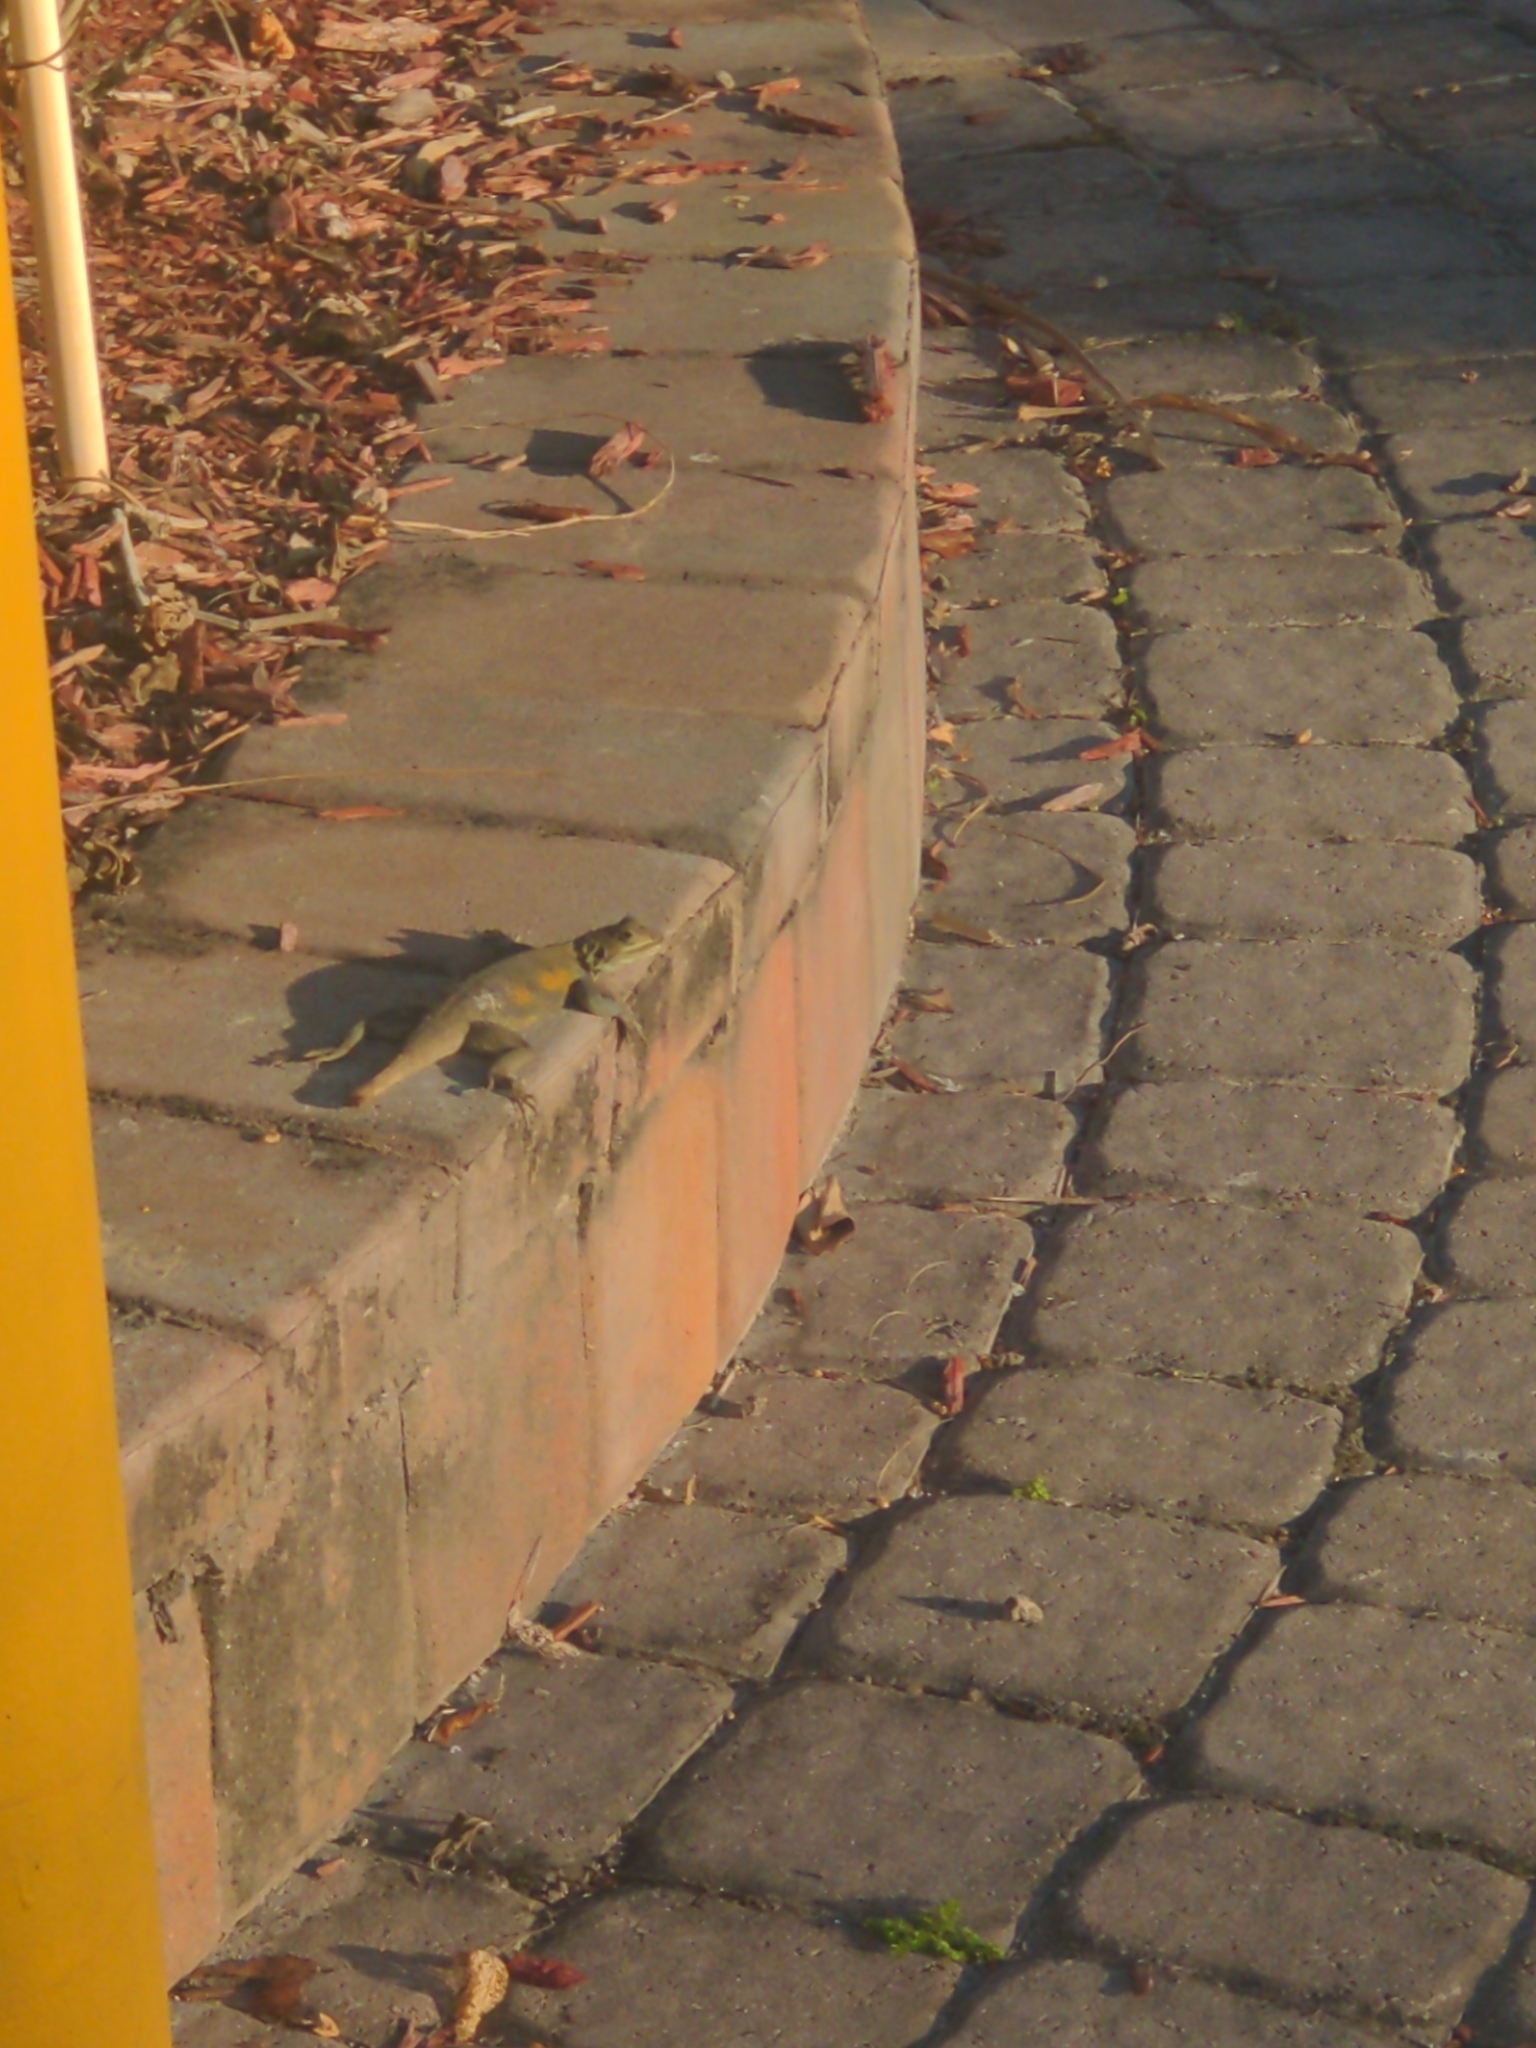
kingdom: Animalia
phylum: Chordata
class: Squamata
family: Agamidae
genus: Agama
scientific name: Agama picticauda
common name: Red-headed agama
